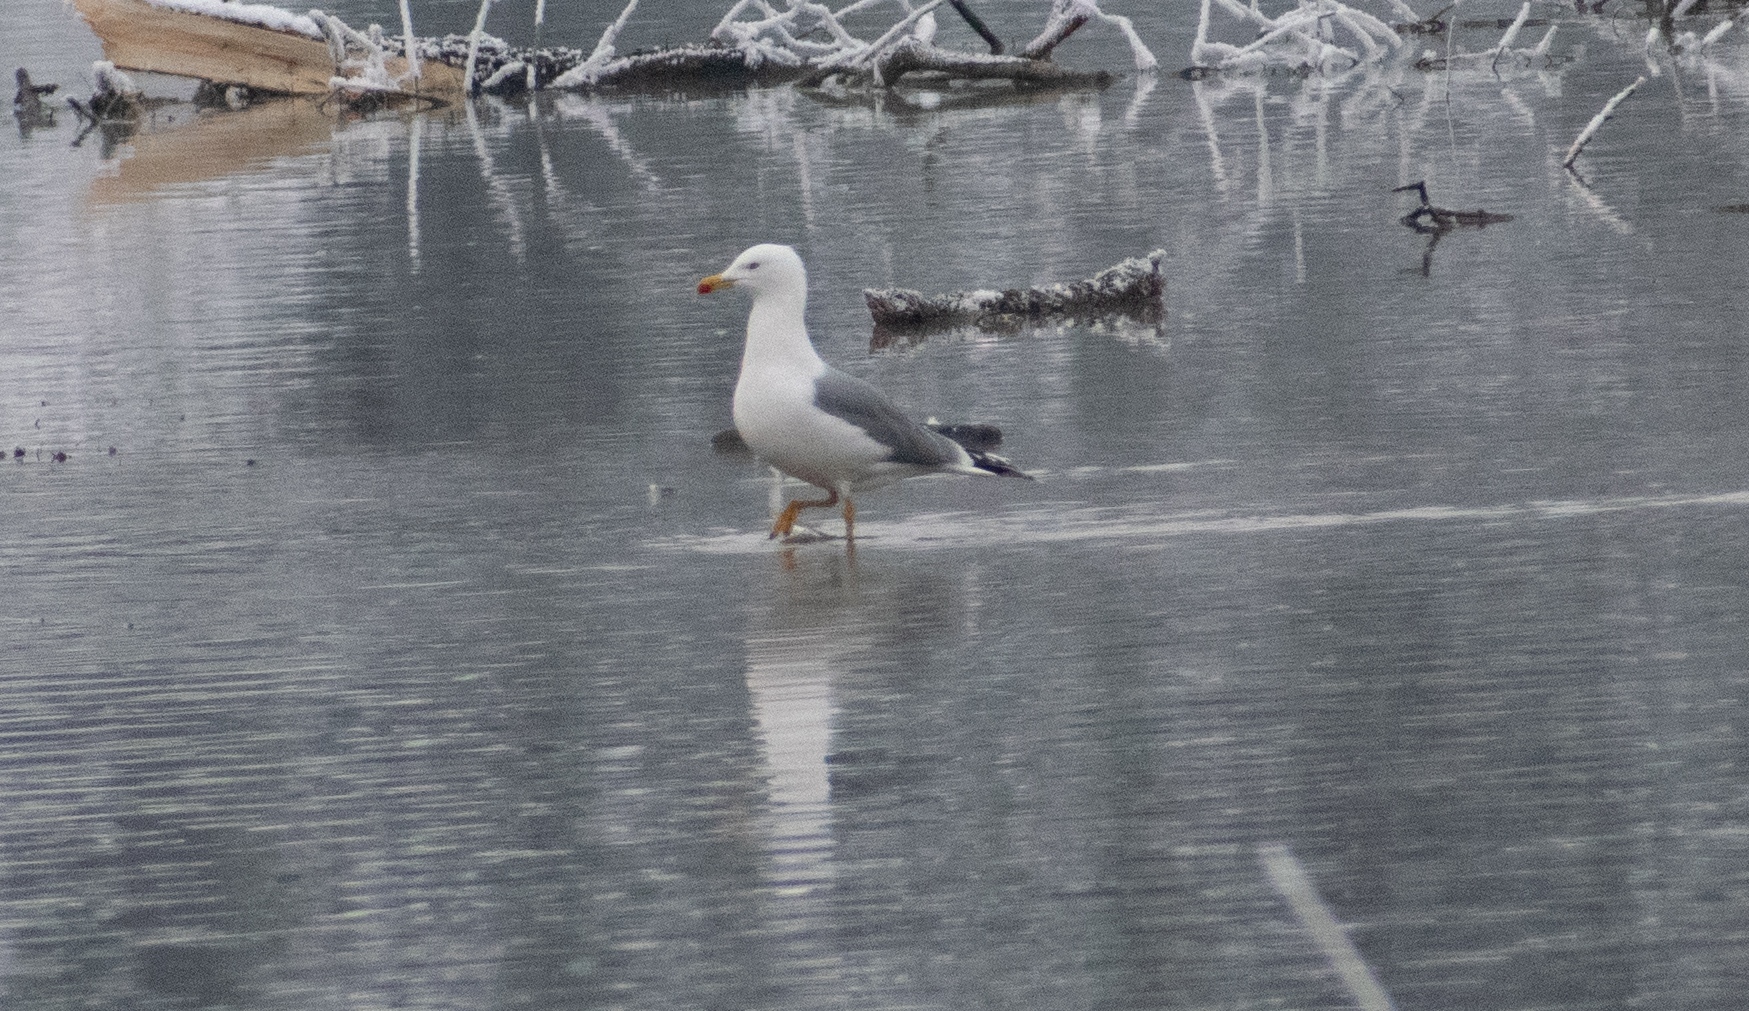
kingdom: Animalia
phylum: Chordata
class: Aves
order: Charadriiformes
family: Laridae
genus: Larus
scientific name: Larus michahellis
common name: Yellow-legged gull
